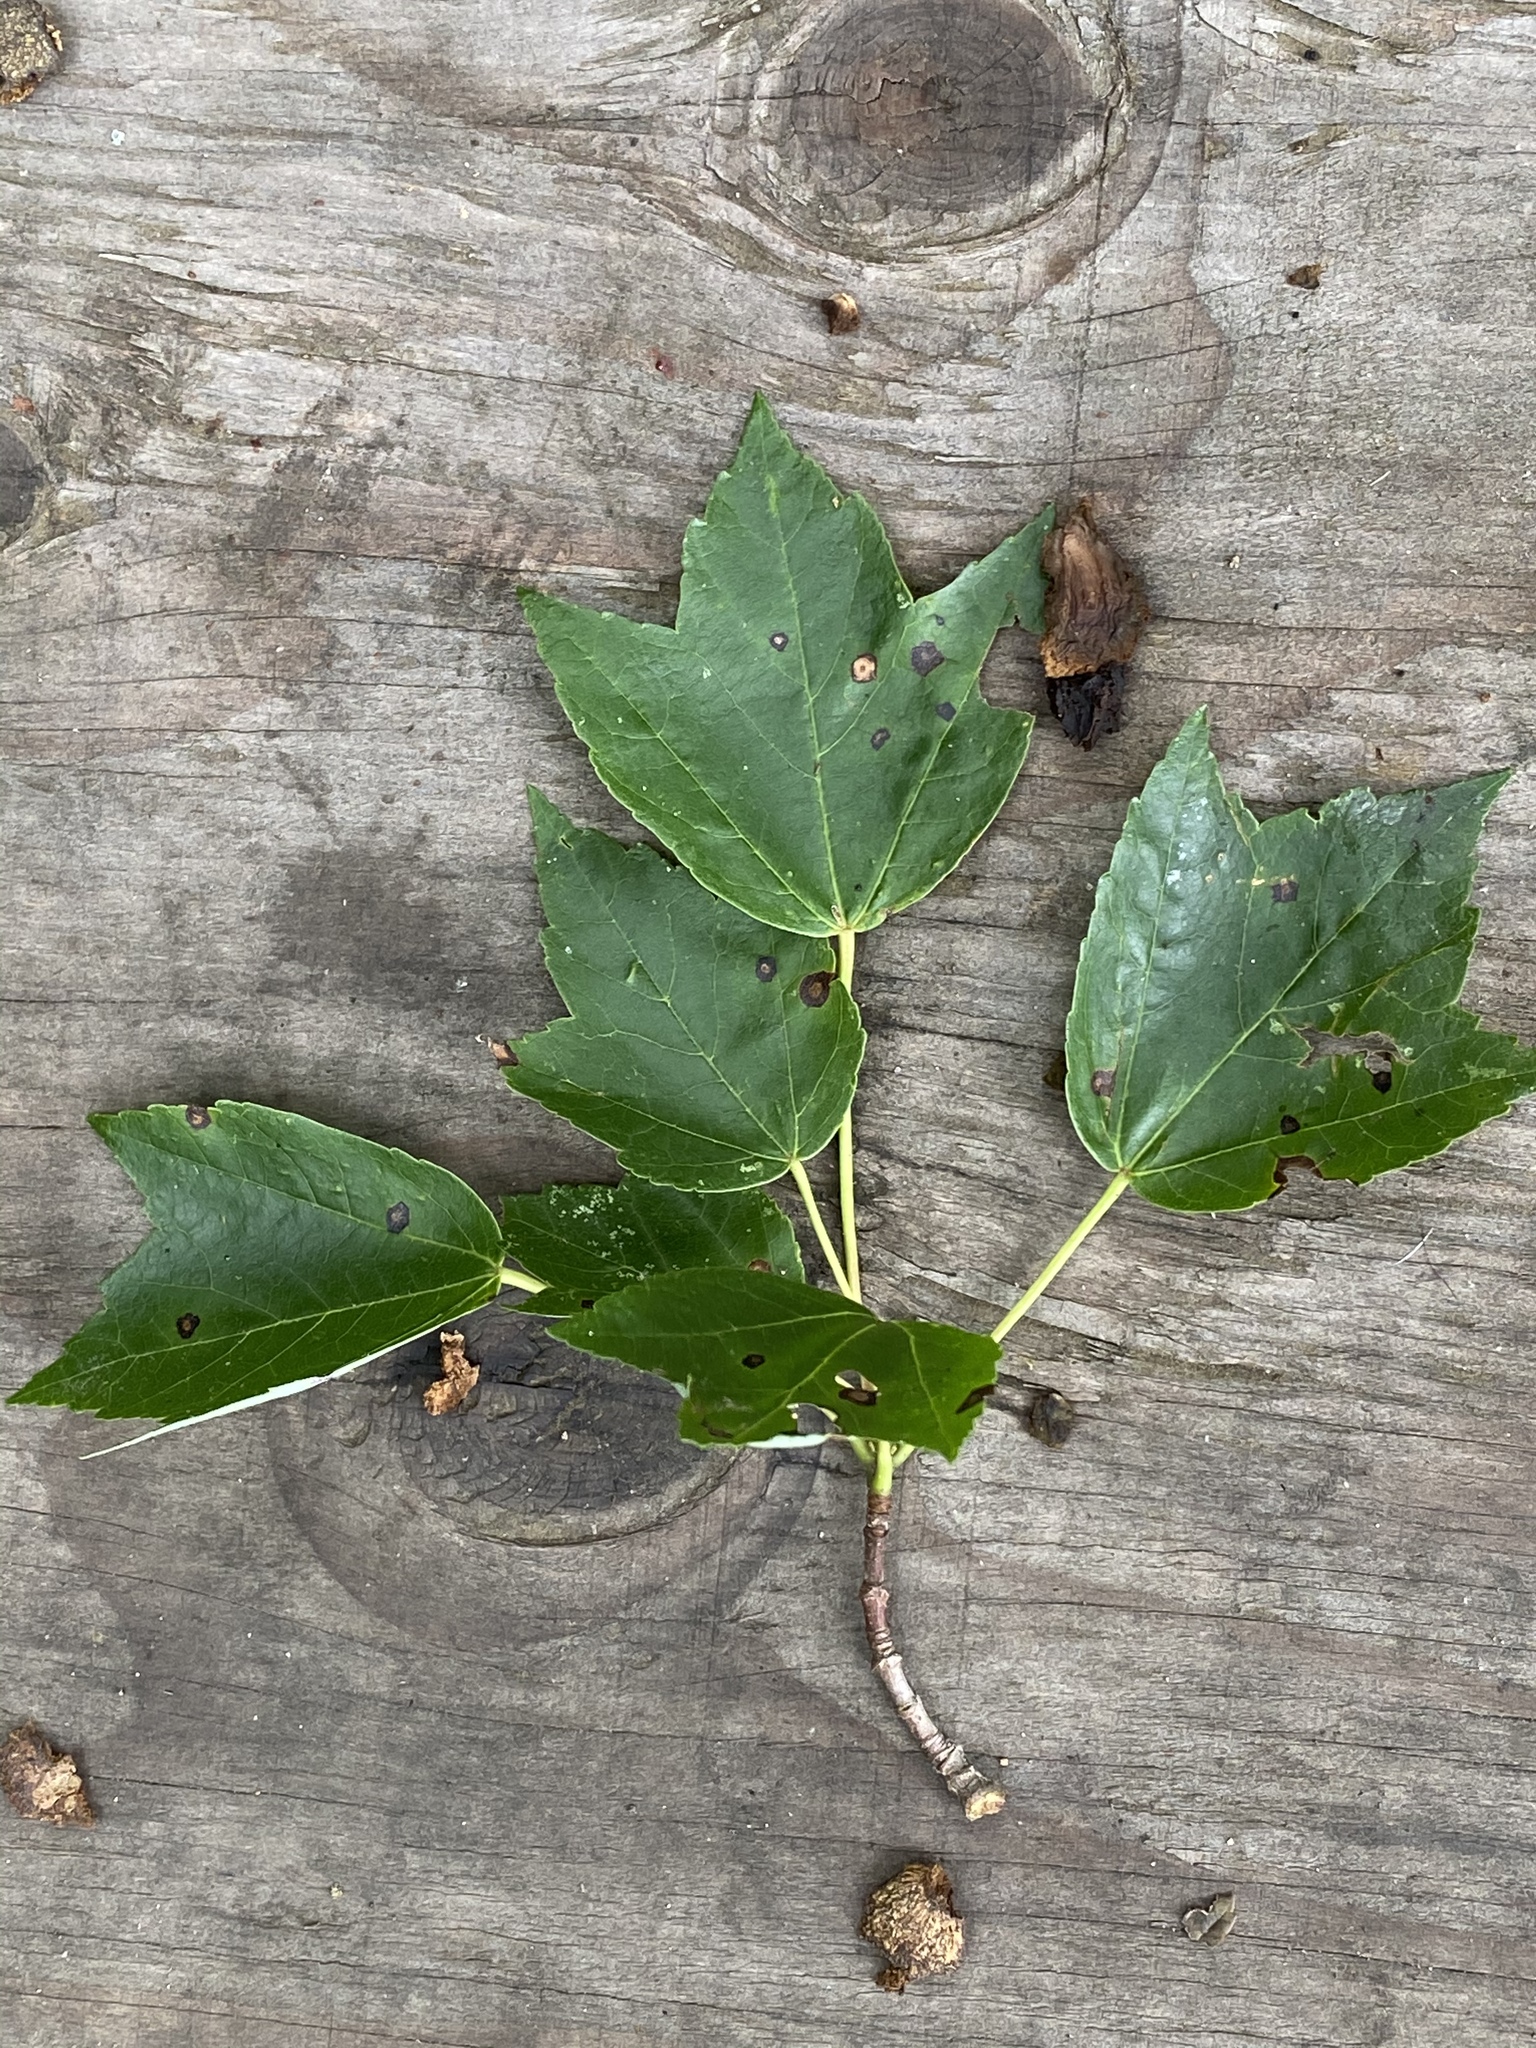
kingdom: Plantae
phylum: Tracheophyta
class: Magnoliopsida
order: Sapindales
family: Sapindaceae
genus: Acer
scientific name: Acer rubrum
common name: Red maple
